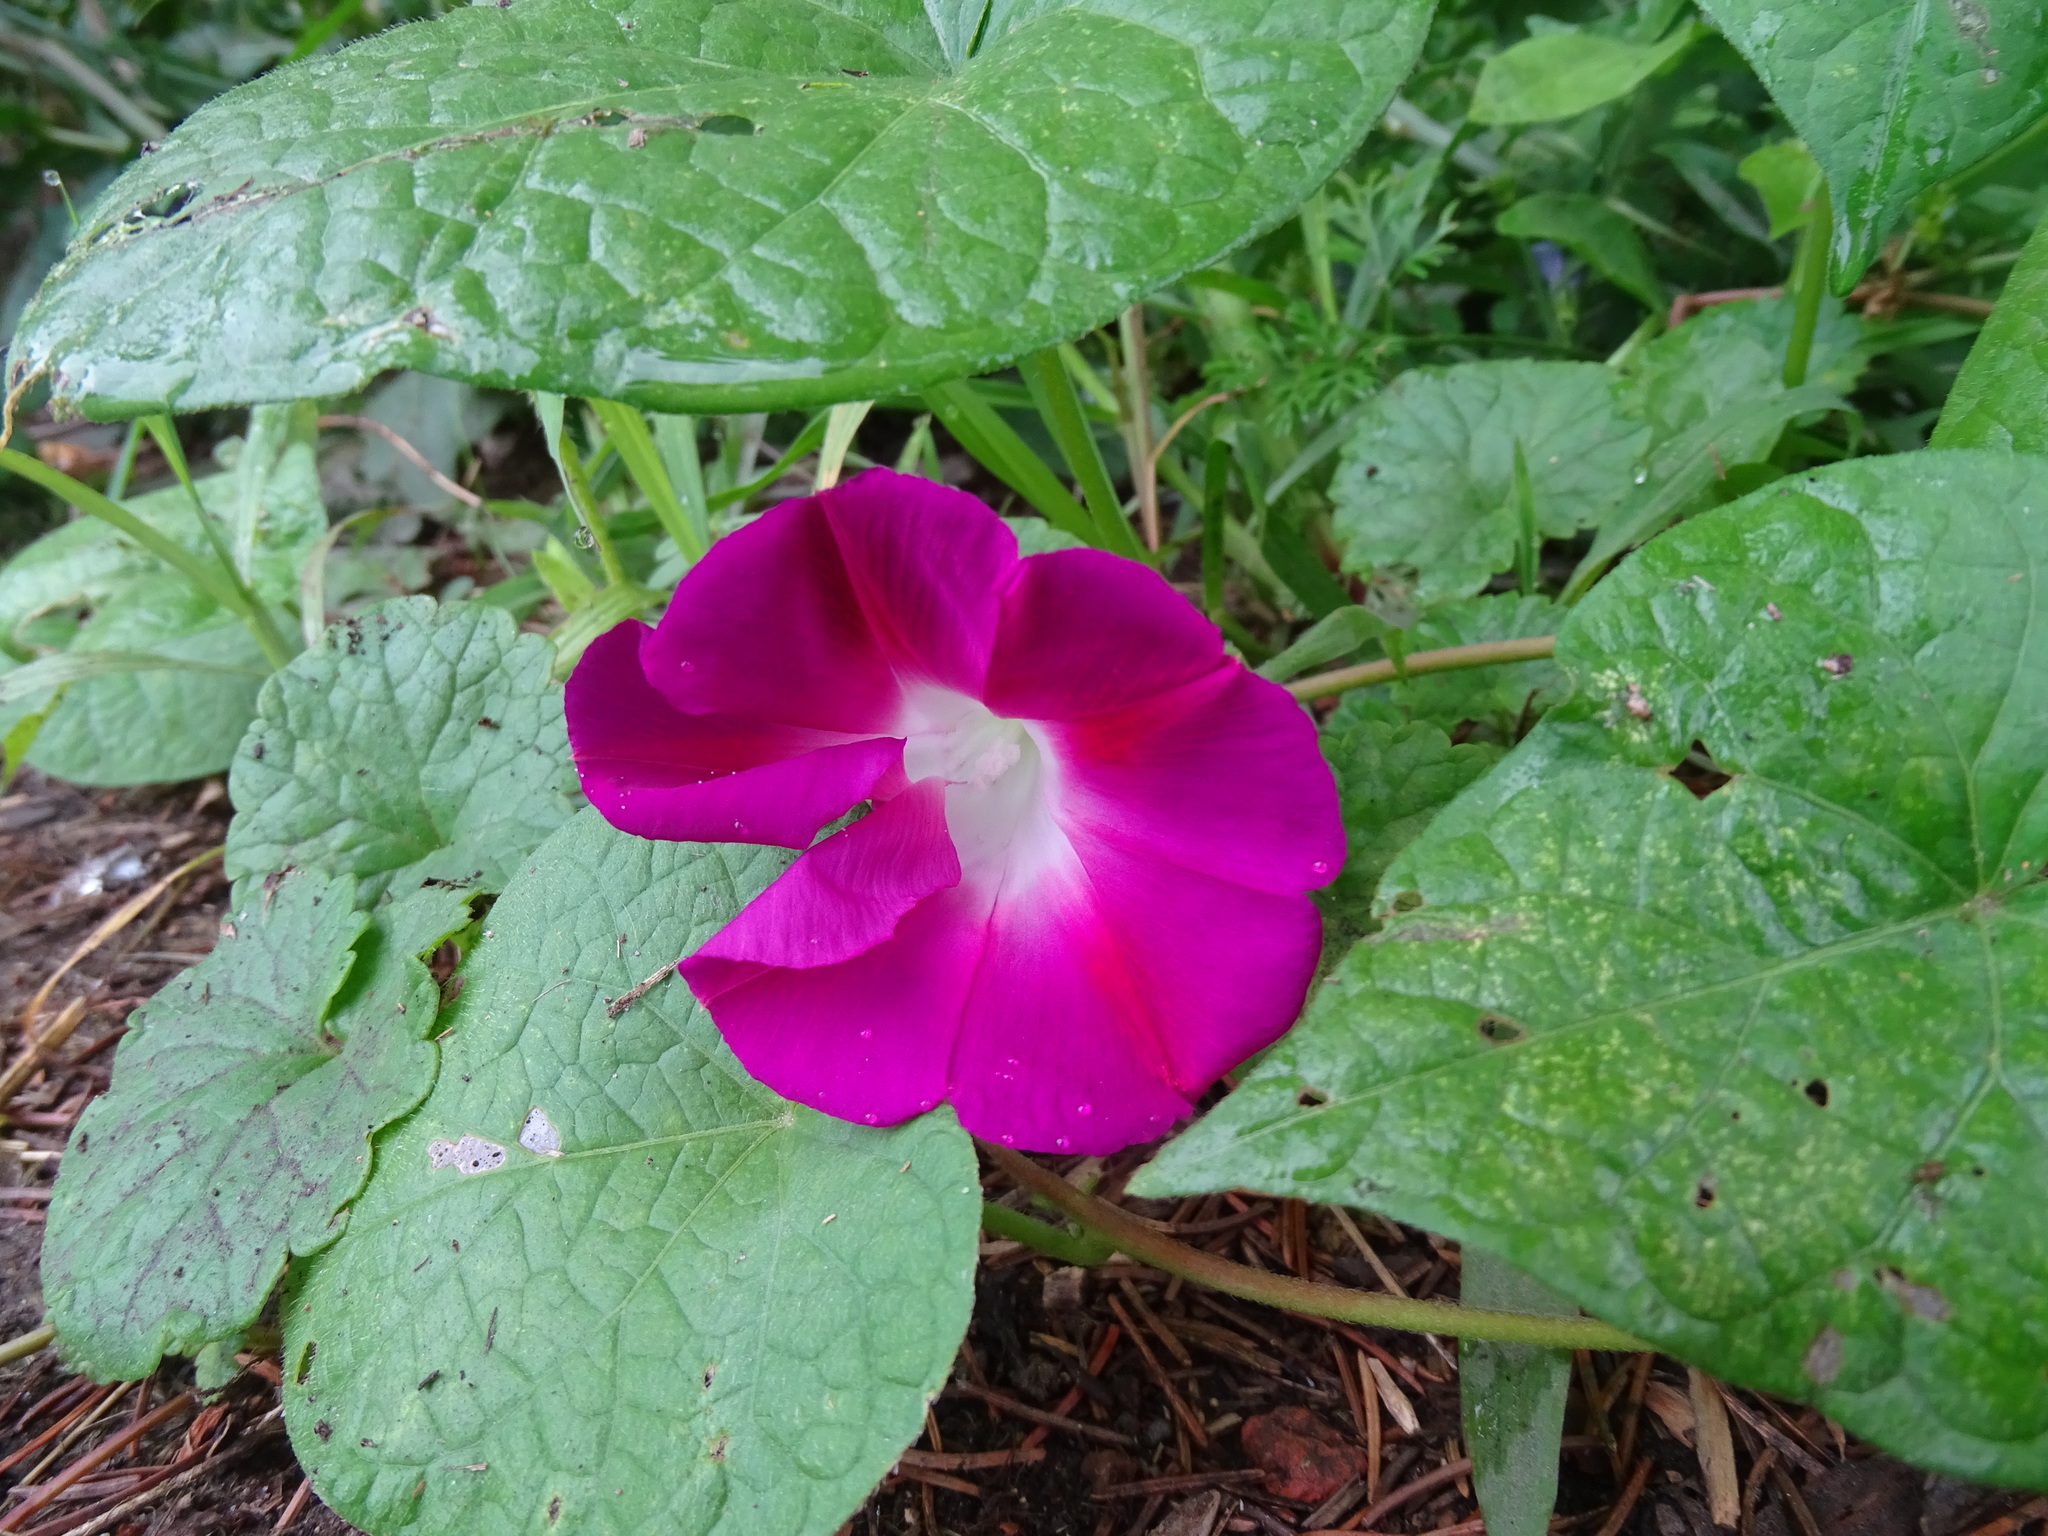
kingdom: Plantae
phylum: Tracheophyta
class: Magnoliopsida
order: Solanales
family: Convolvulaceae
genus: Ipomoea
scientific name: Ipomoea purpurea
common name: Common morning-glory
